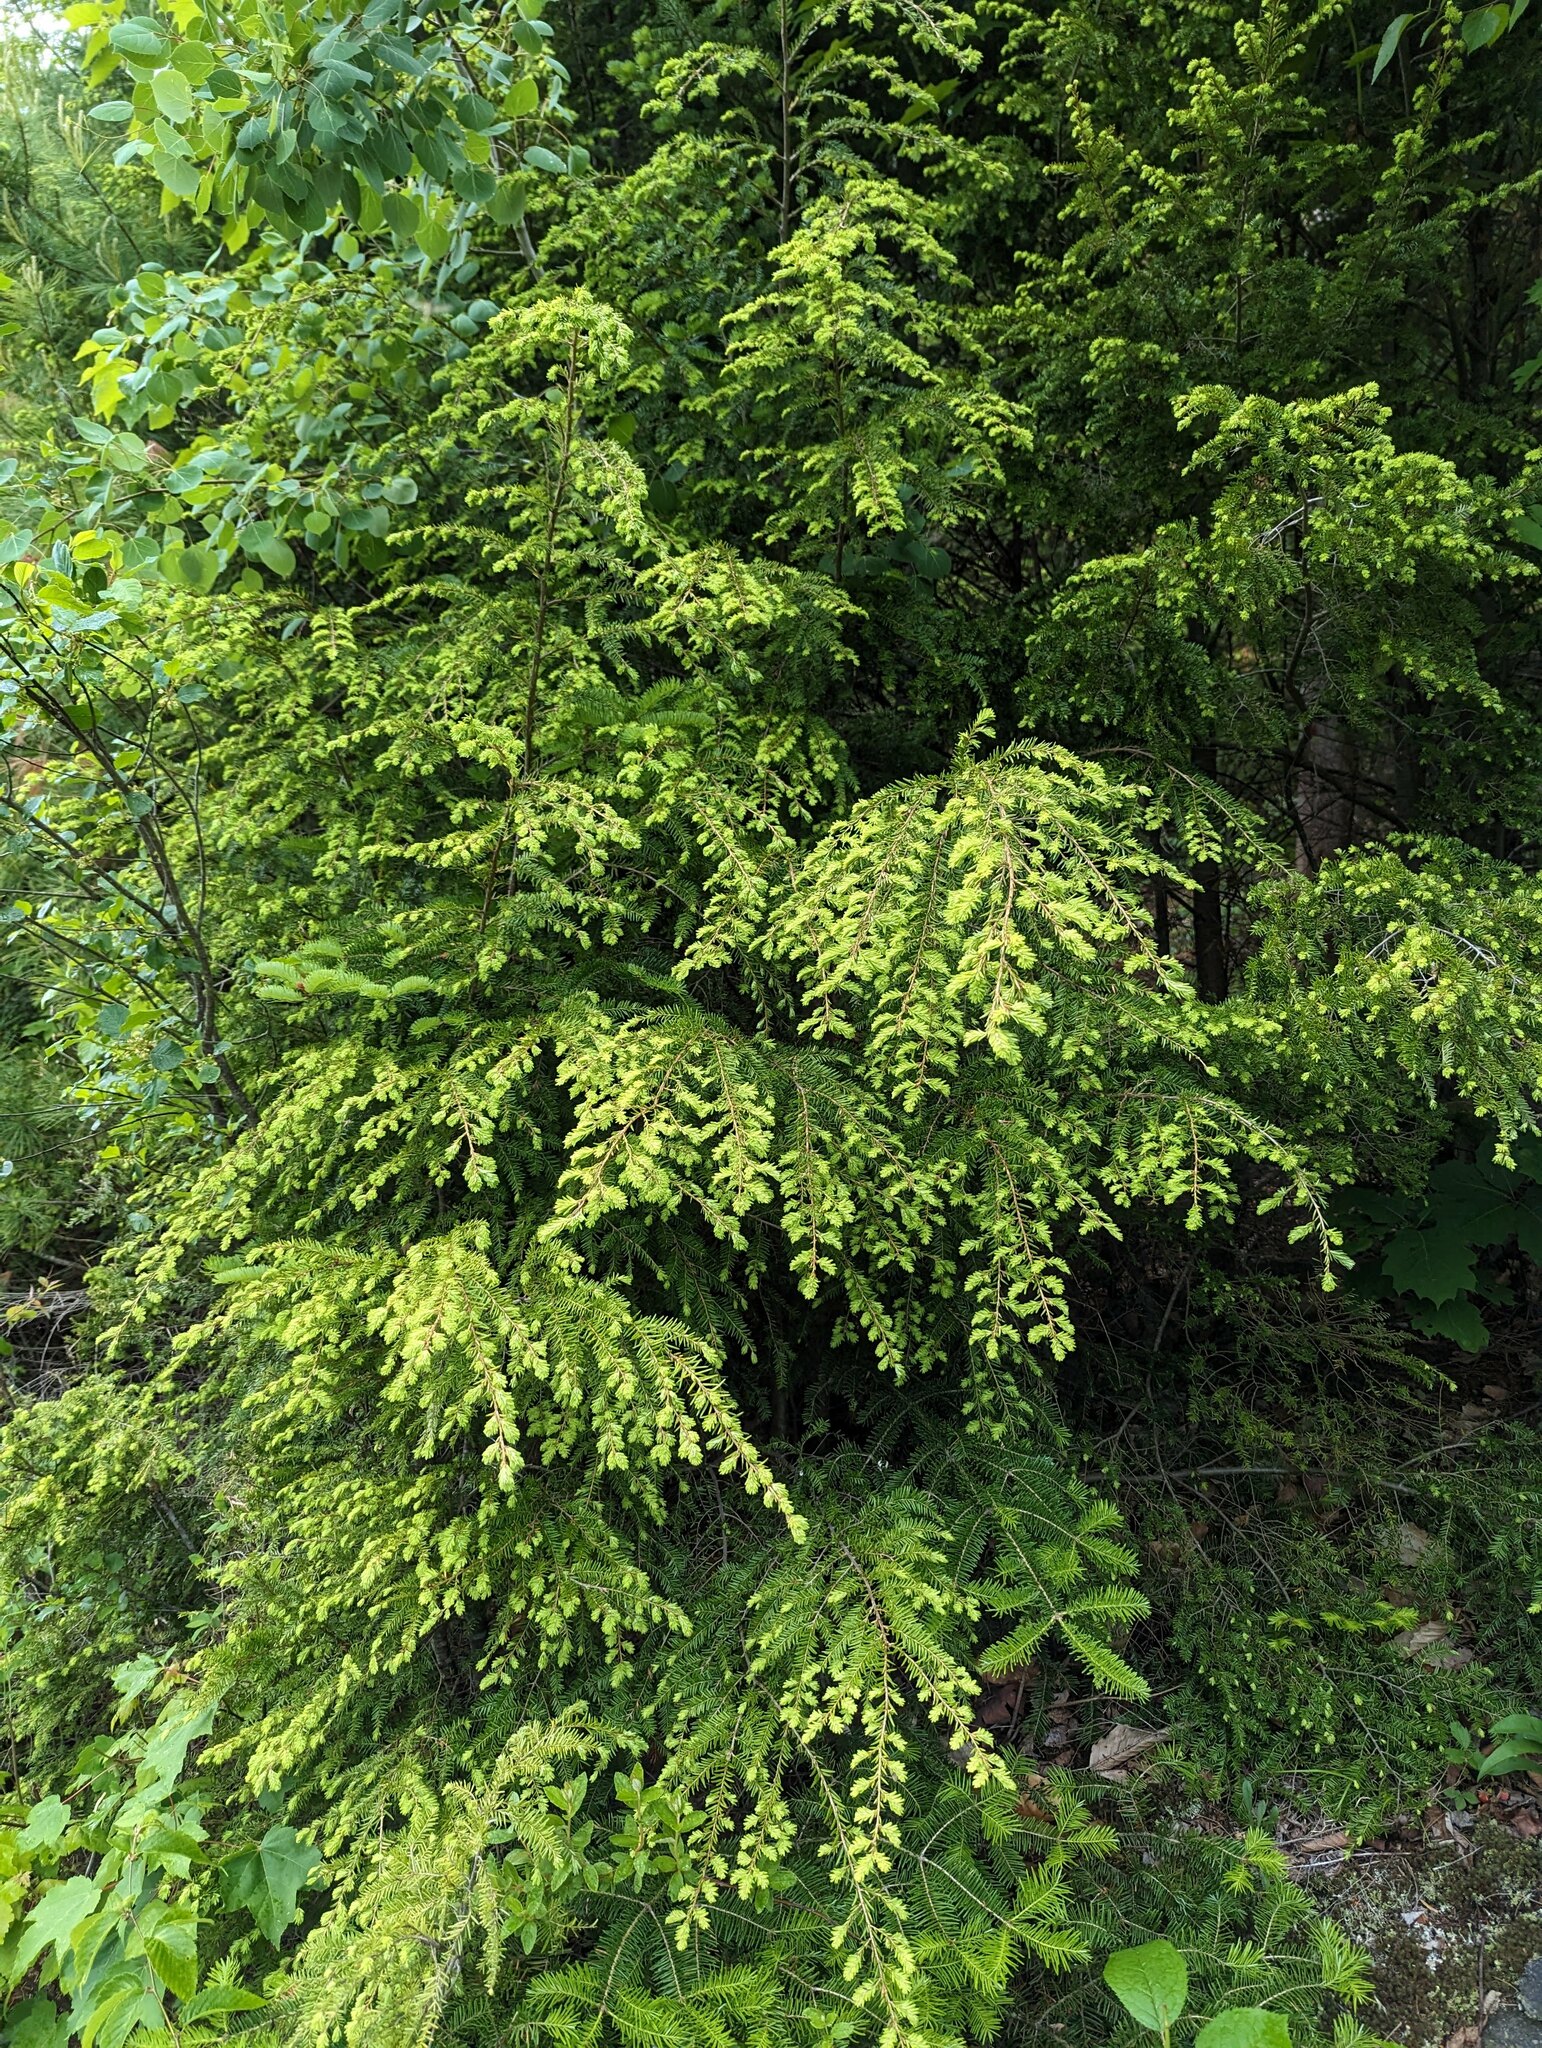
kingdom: Plantae
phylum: Tracheophyta
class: Pinopsida
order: Pinales
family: Pinaceae
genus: Tsuga
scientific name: Tsuga canadensis
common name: Eastern hemlock
